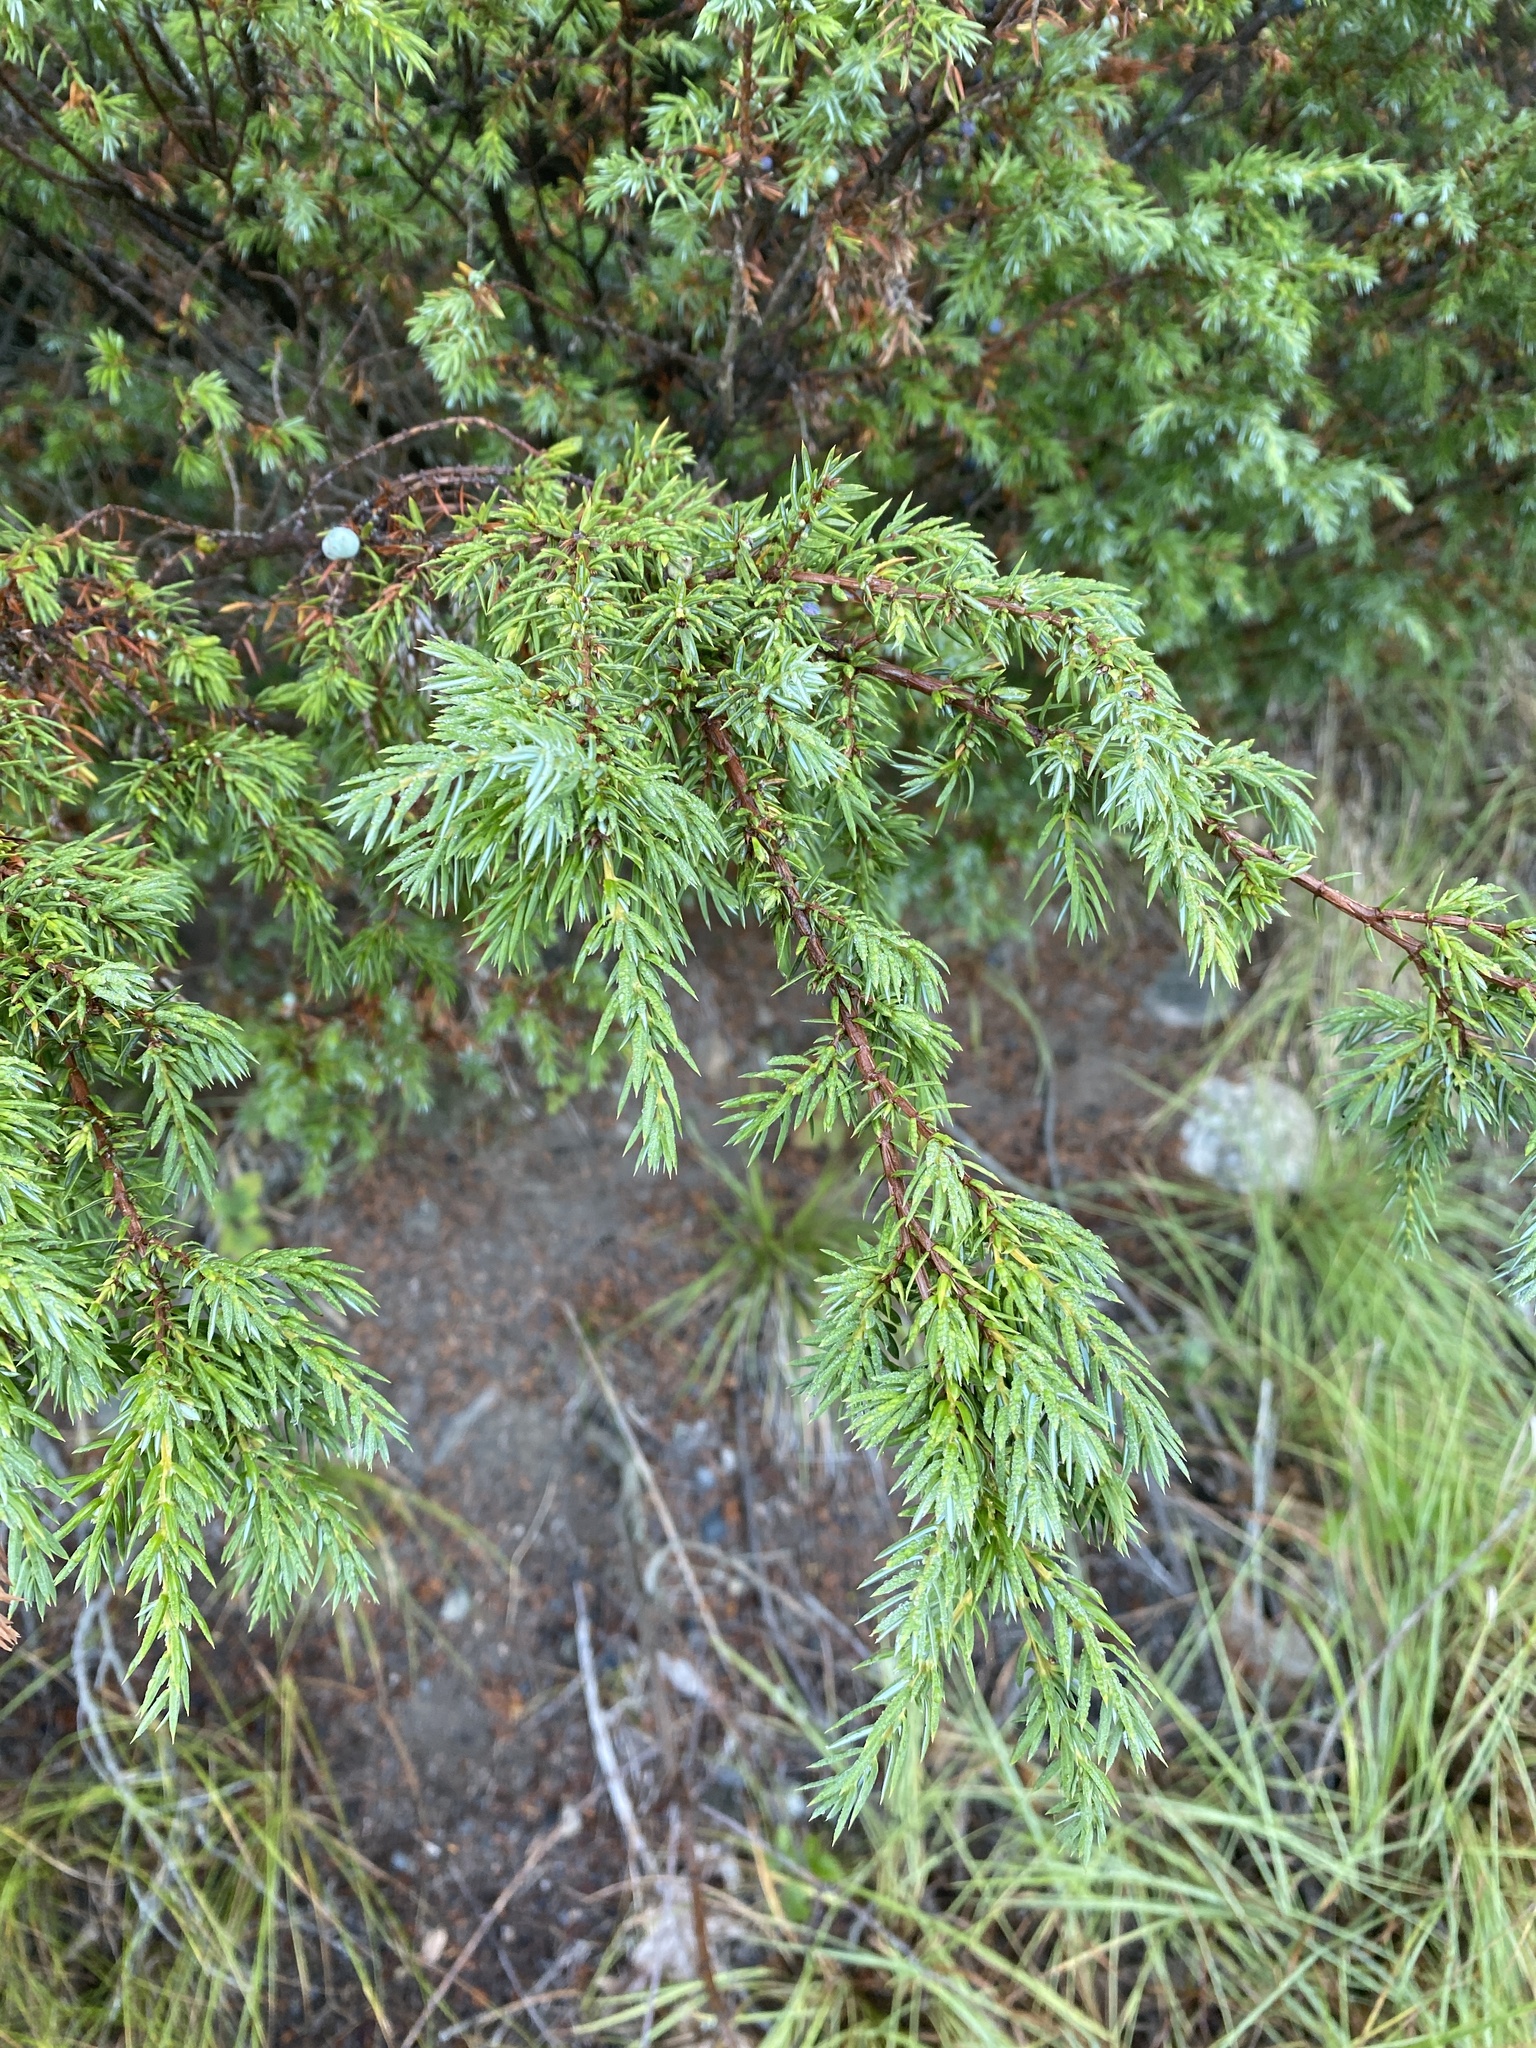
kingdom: Plantae
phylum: Tracheophyta
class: Pinopsida
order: Pinales
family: Cupressaceae
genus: Juniperus
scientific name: Juniperus communis
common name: Common juniper
